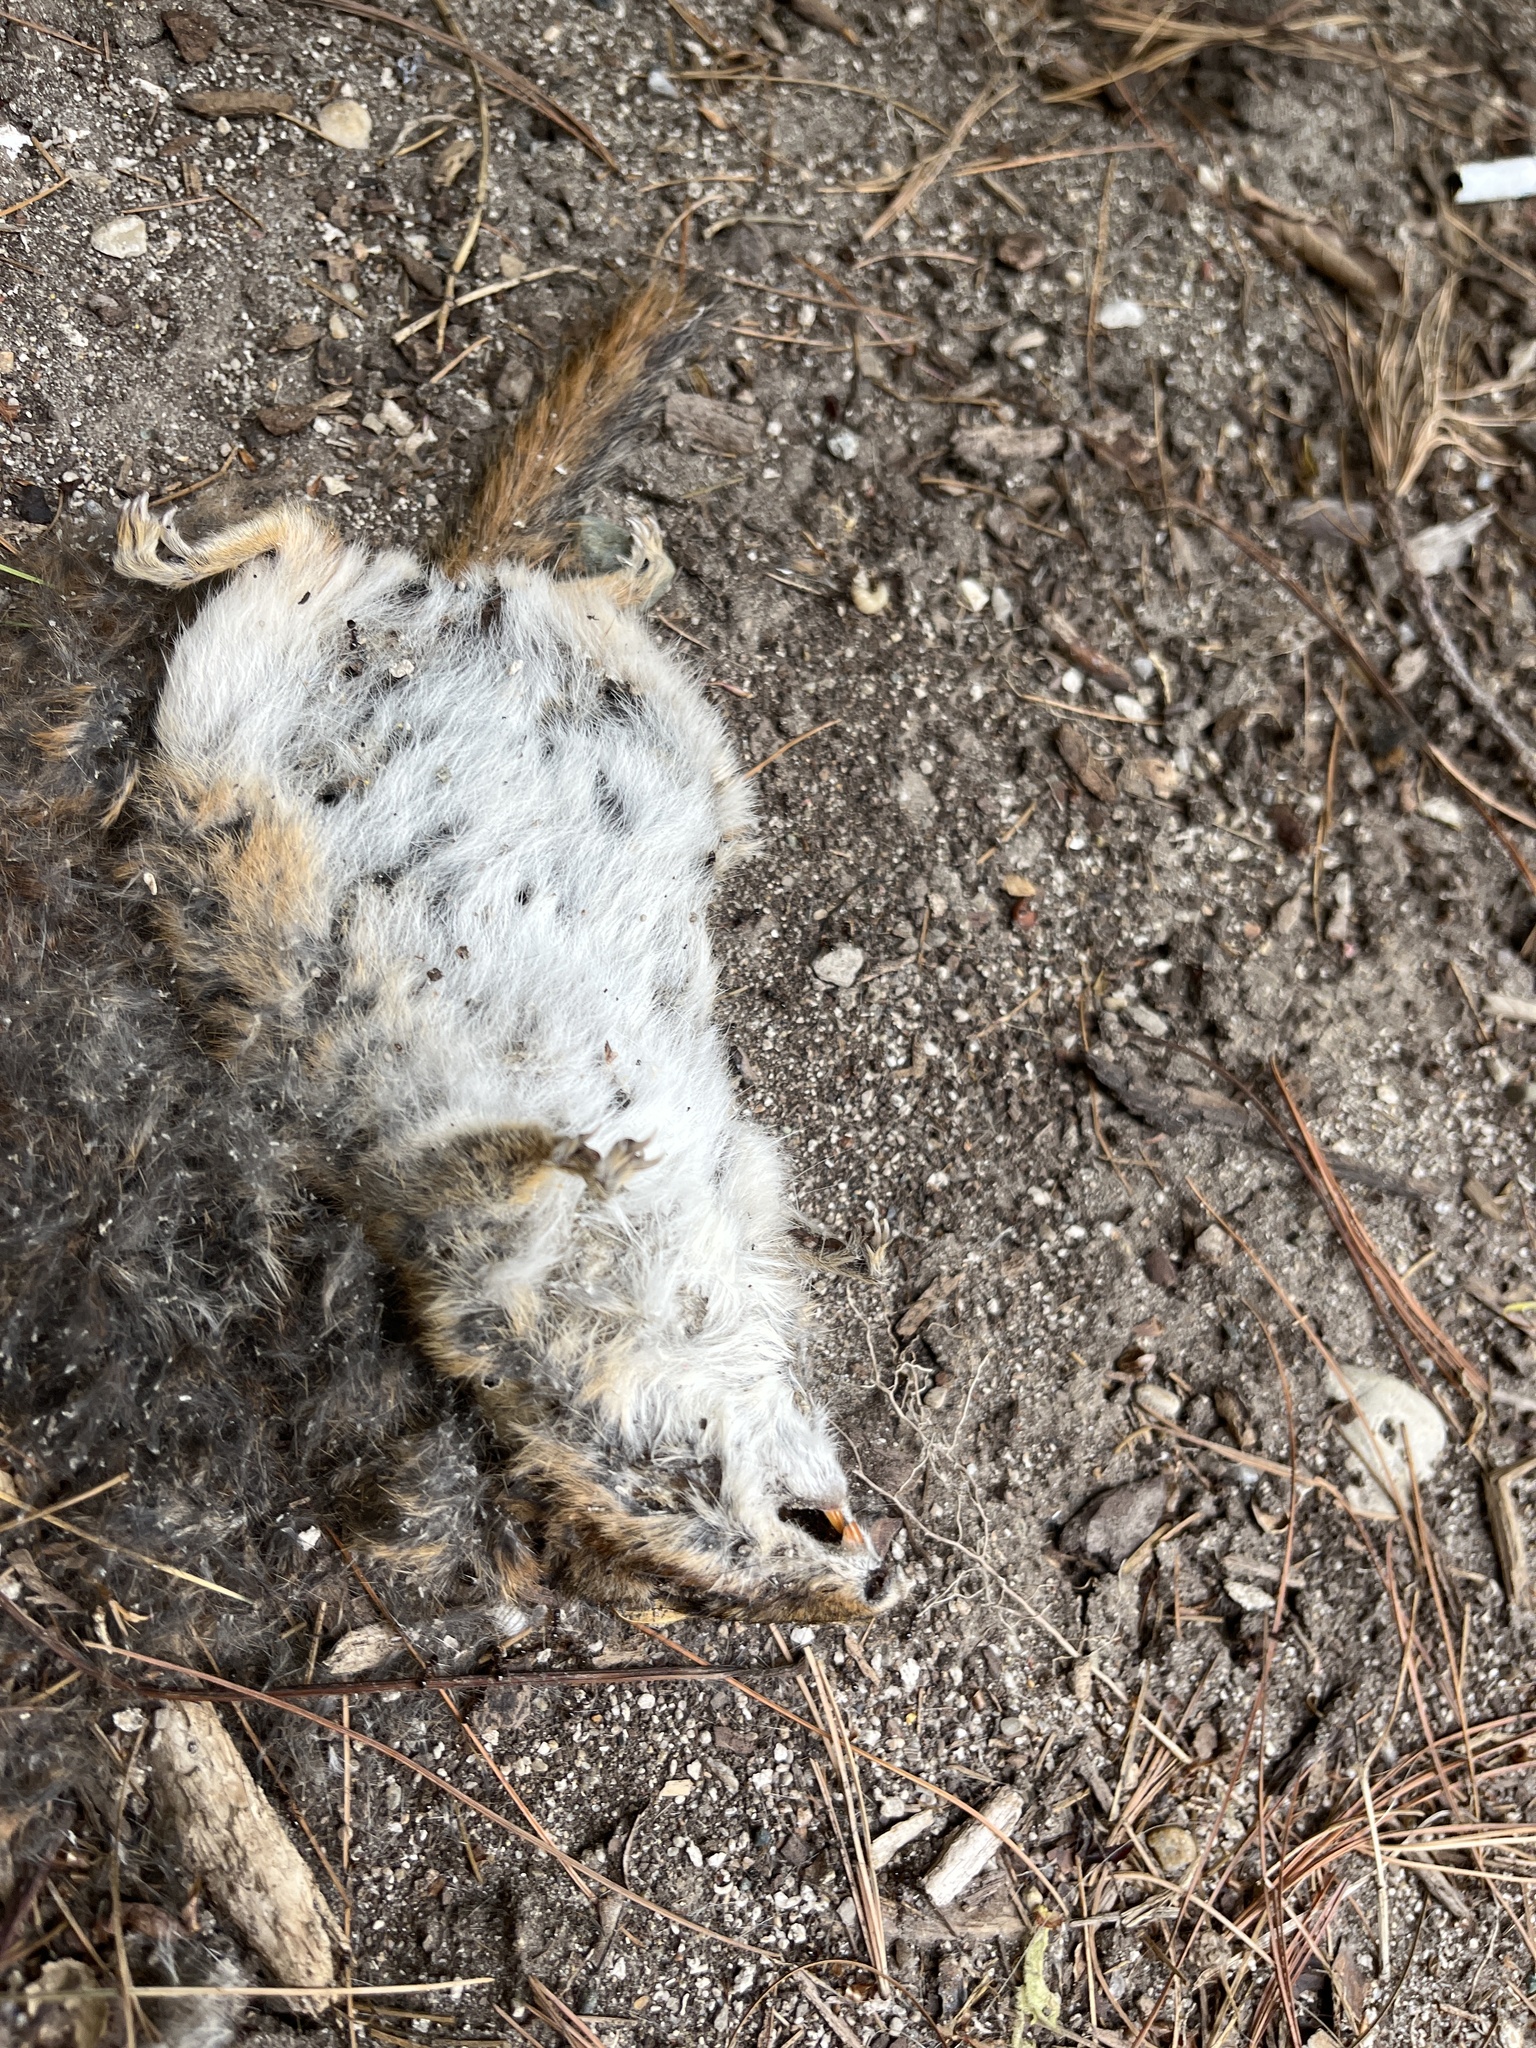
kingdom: Animalia
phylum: Chordata
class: Mammalia
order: Rodentia
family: Sciuridae
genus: Tamias
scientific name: Tamias striatus
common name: Eastern chipmunk
